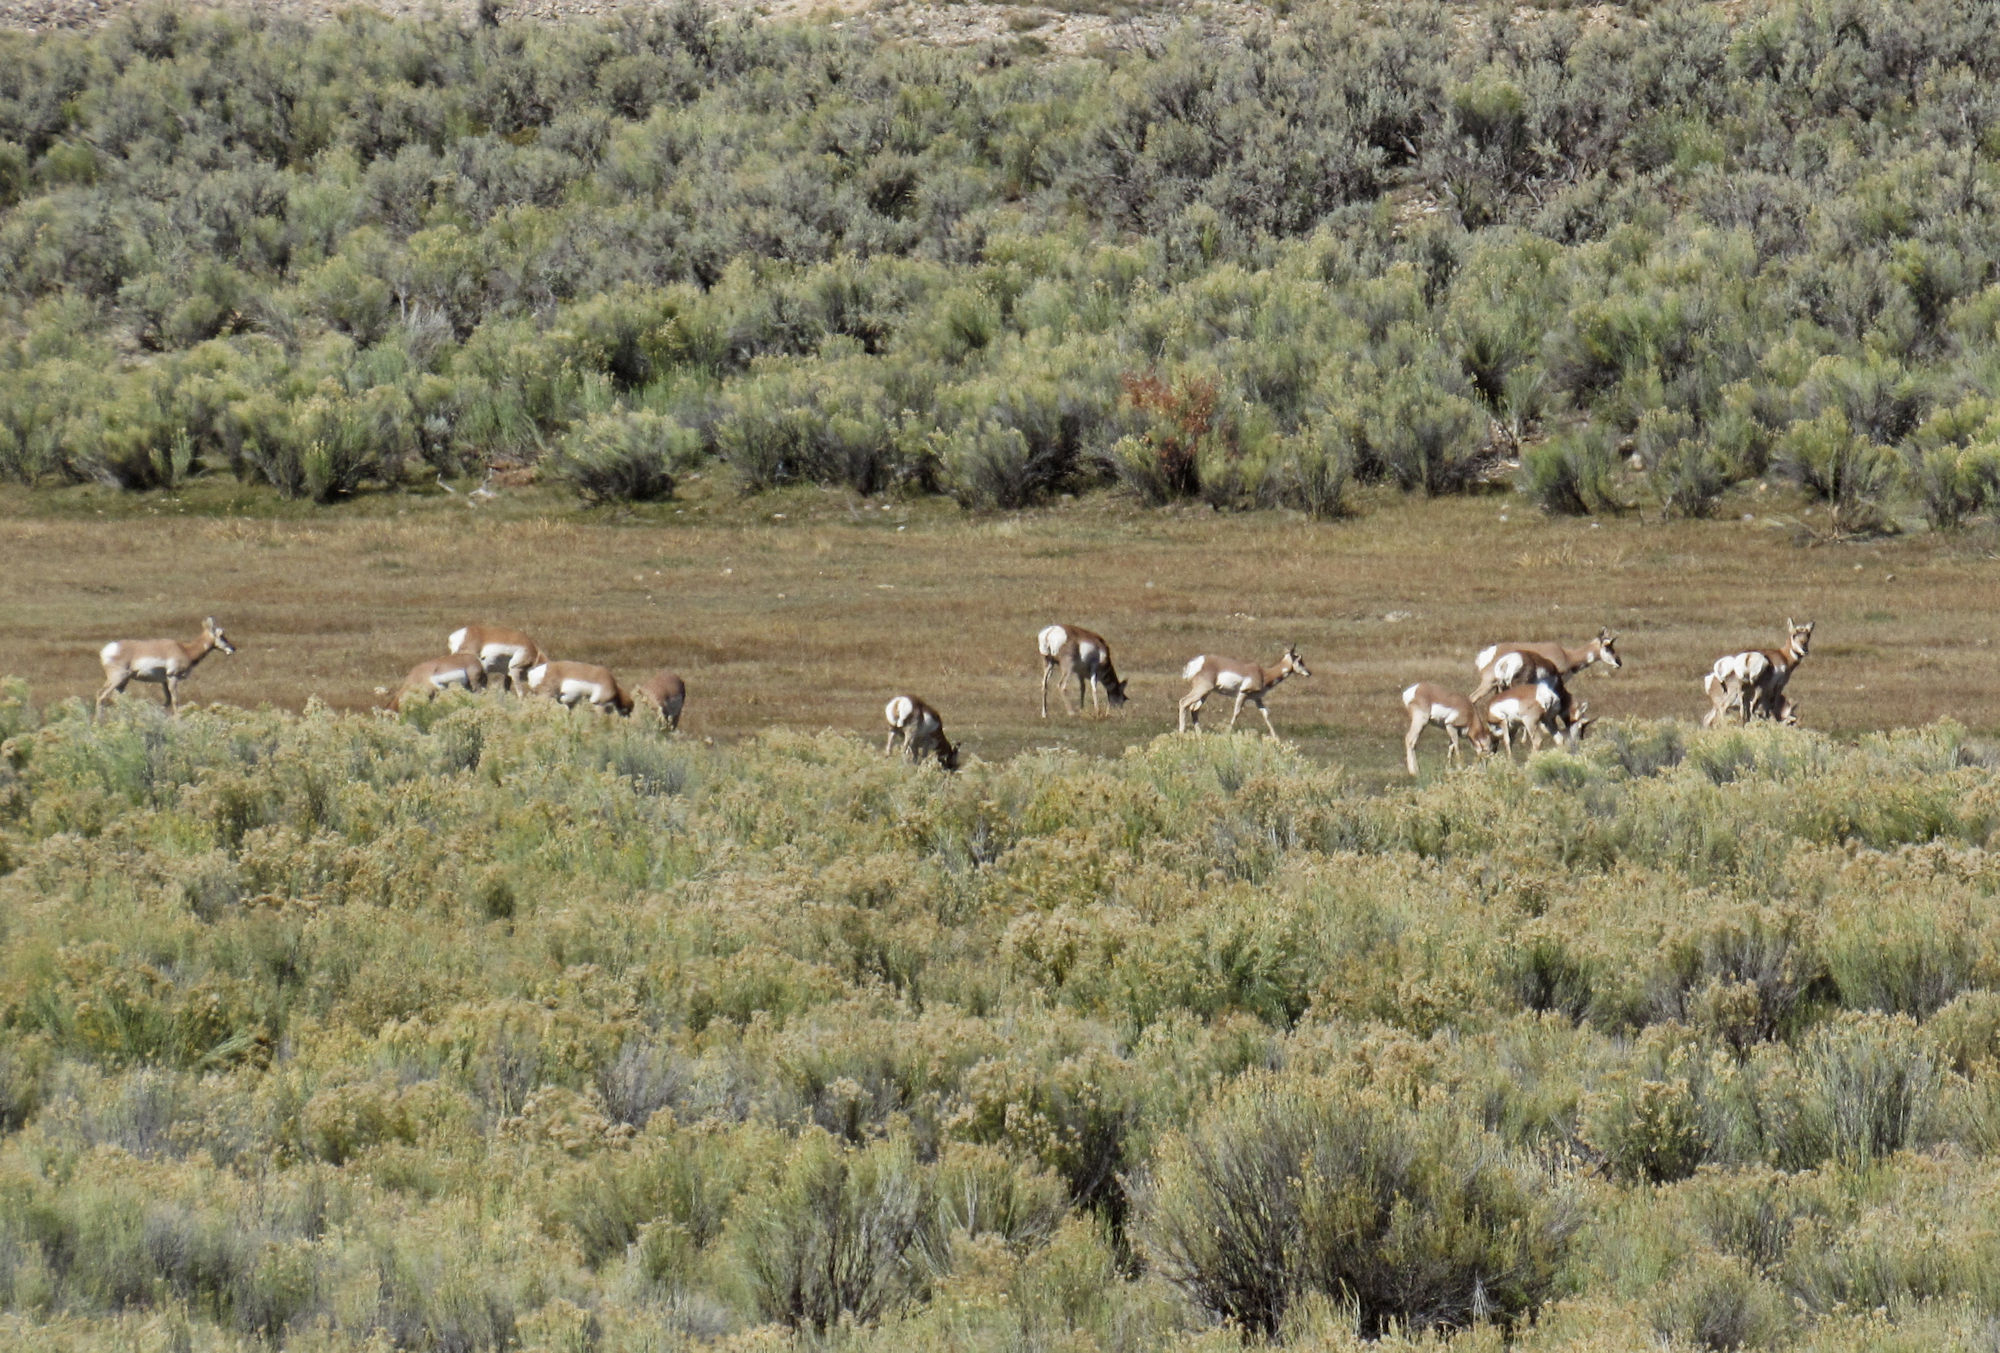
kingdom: Animalia
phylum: Chordata
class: Mammalia
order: Artiodactyla
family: Antilocapridae
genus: Antilocapra
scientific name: Antilocapra americana
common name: Pronghorn
